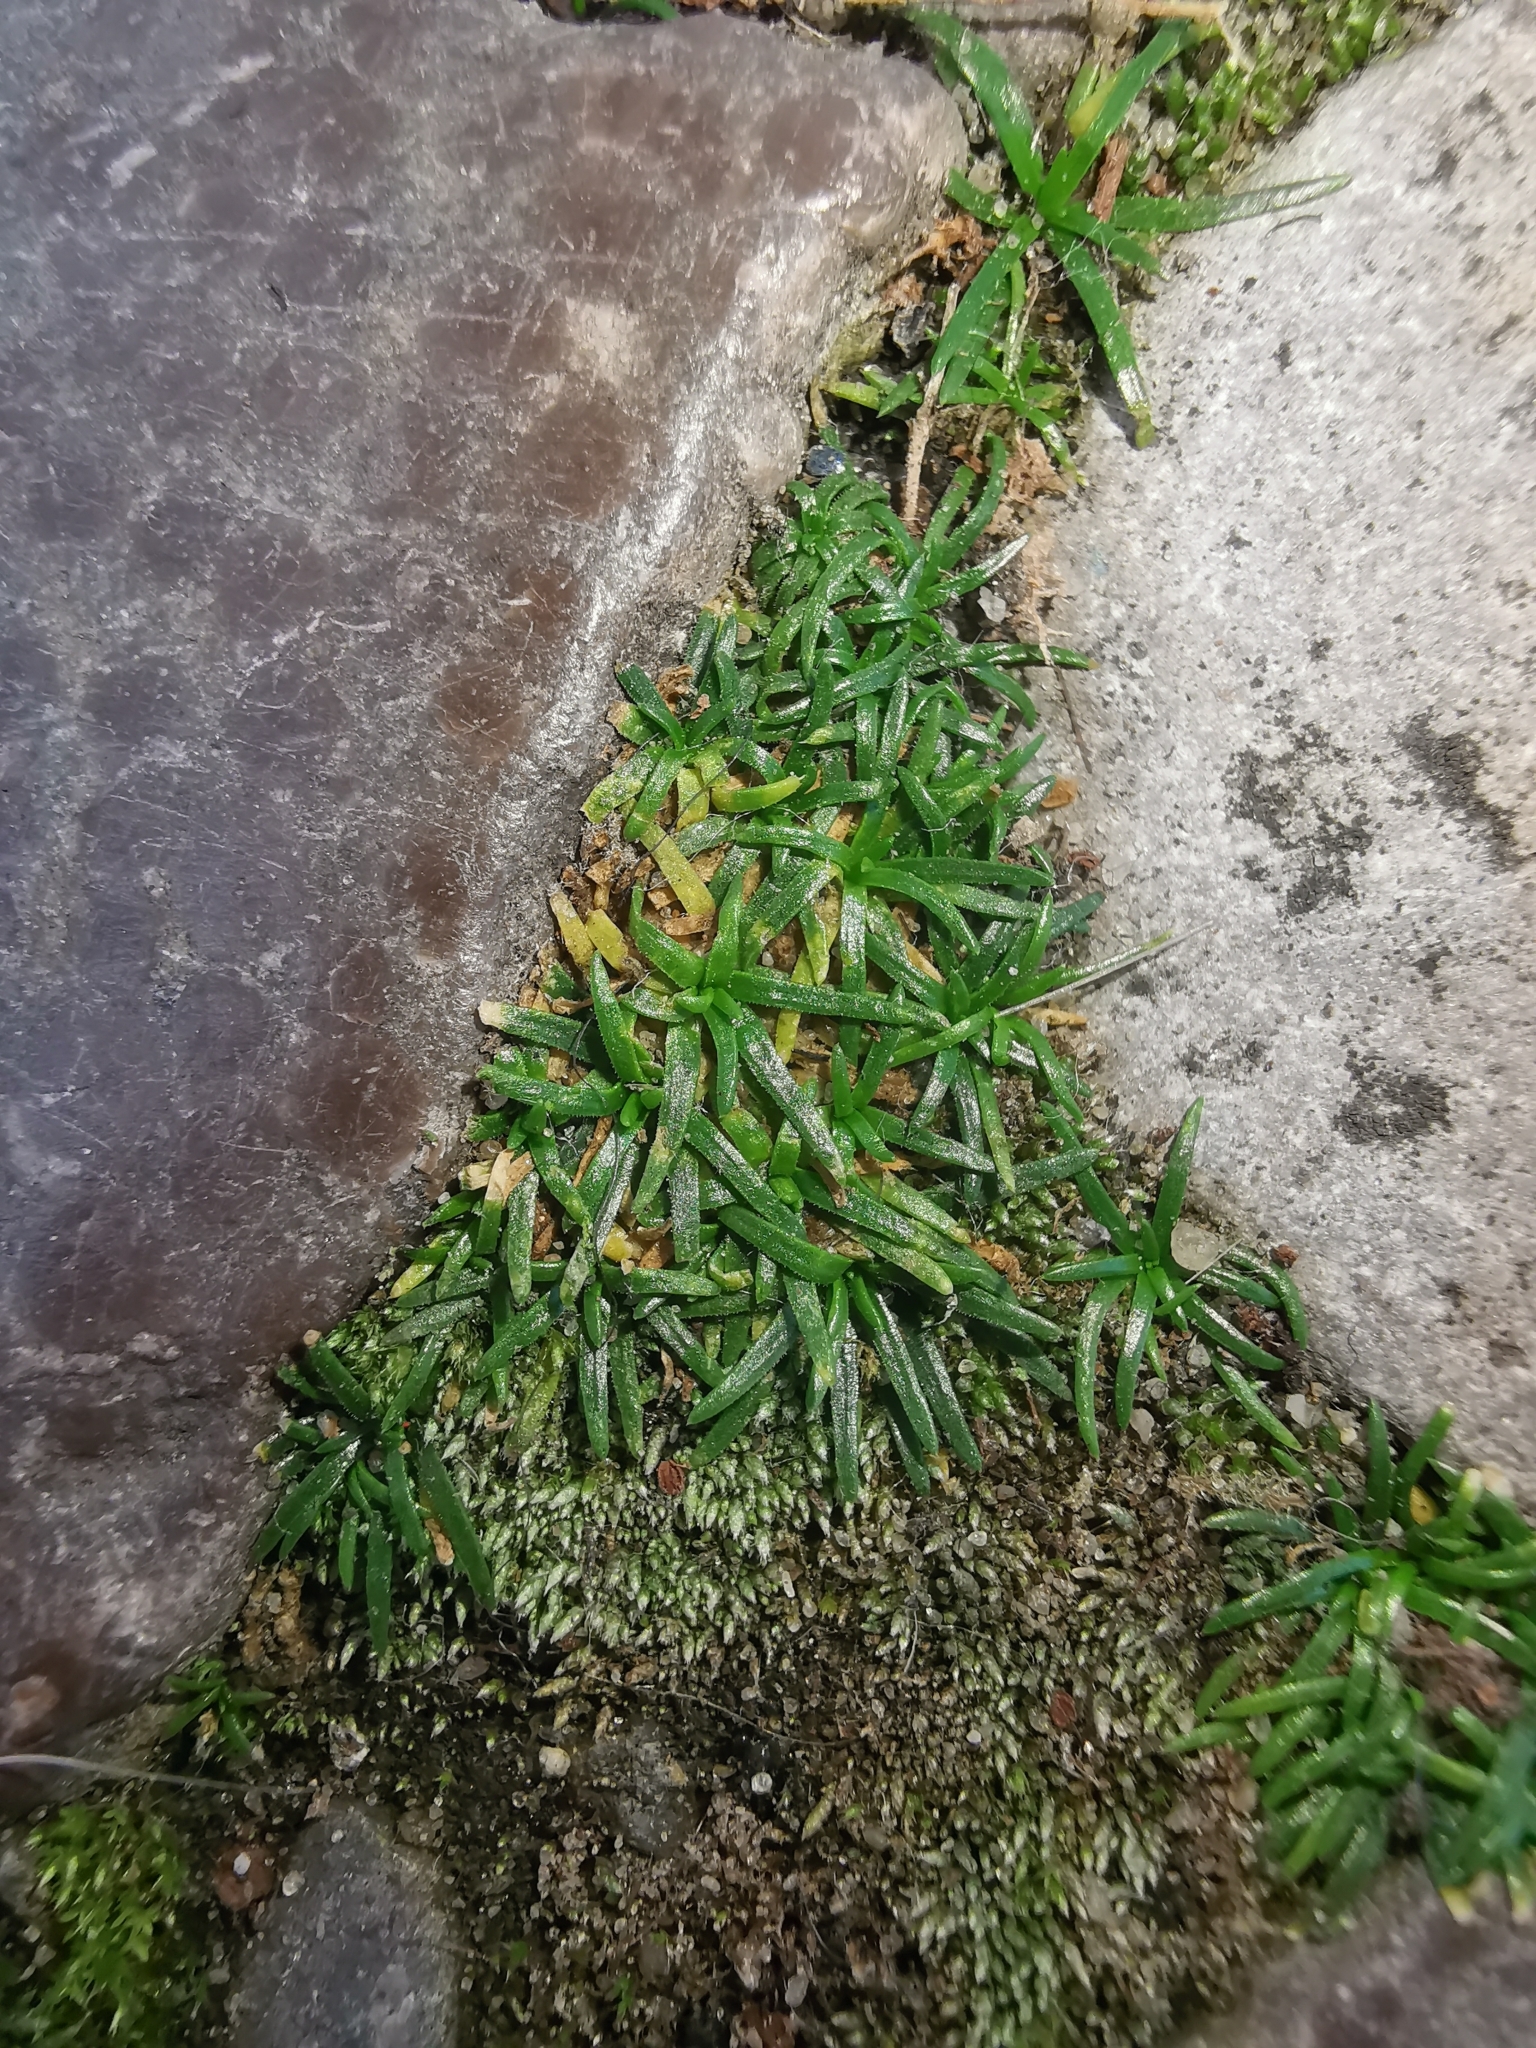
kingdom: Plantae
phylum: Tracheophyta
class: Magnoliopsida
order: Caryophyllales
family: Caryophyllaceae
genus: Sagina
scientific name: Sagina procumbens
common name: Procumbent pearlwort
